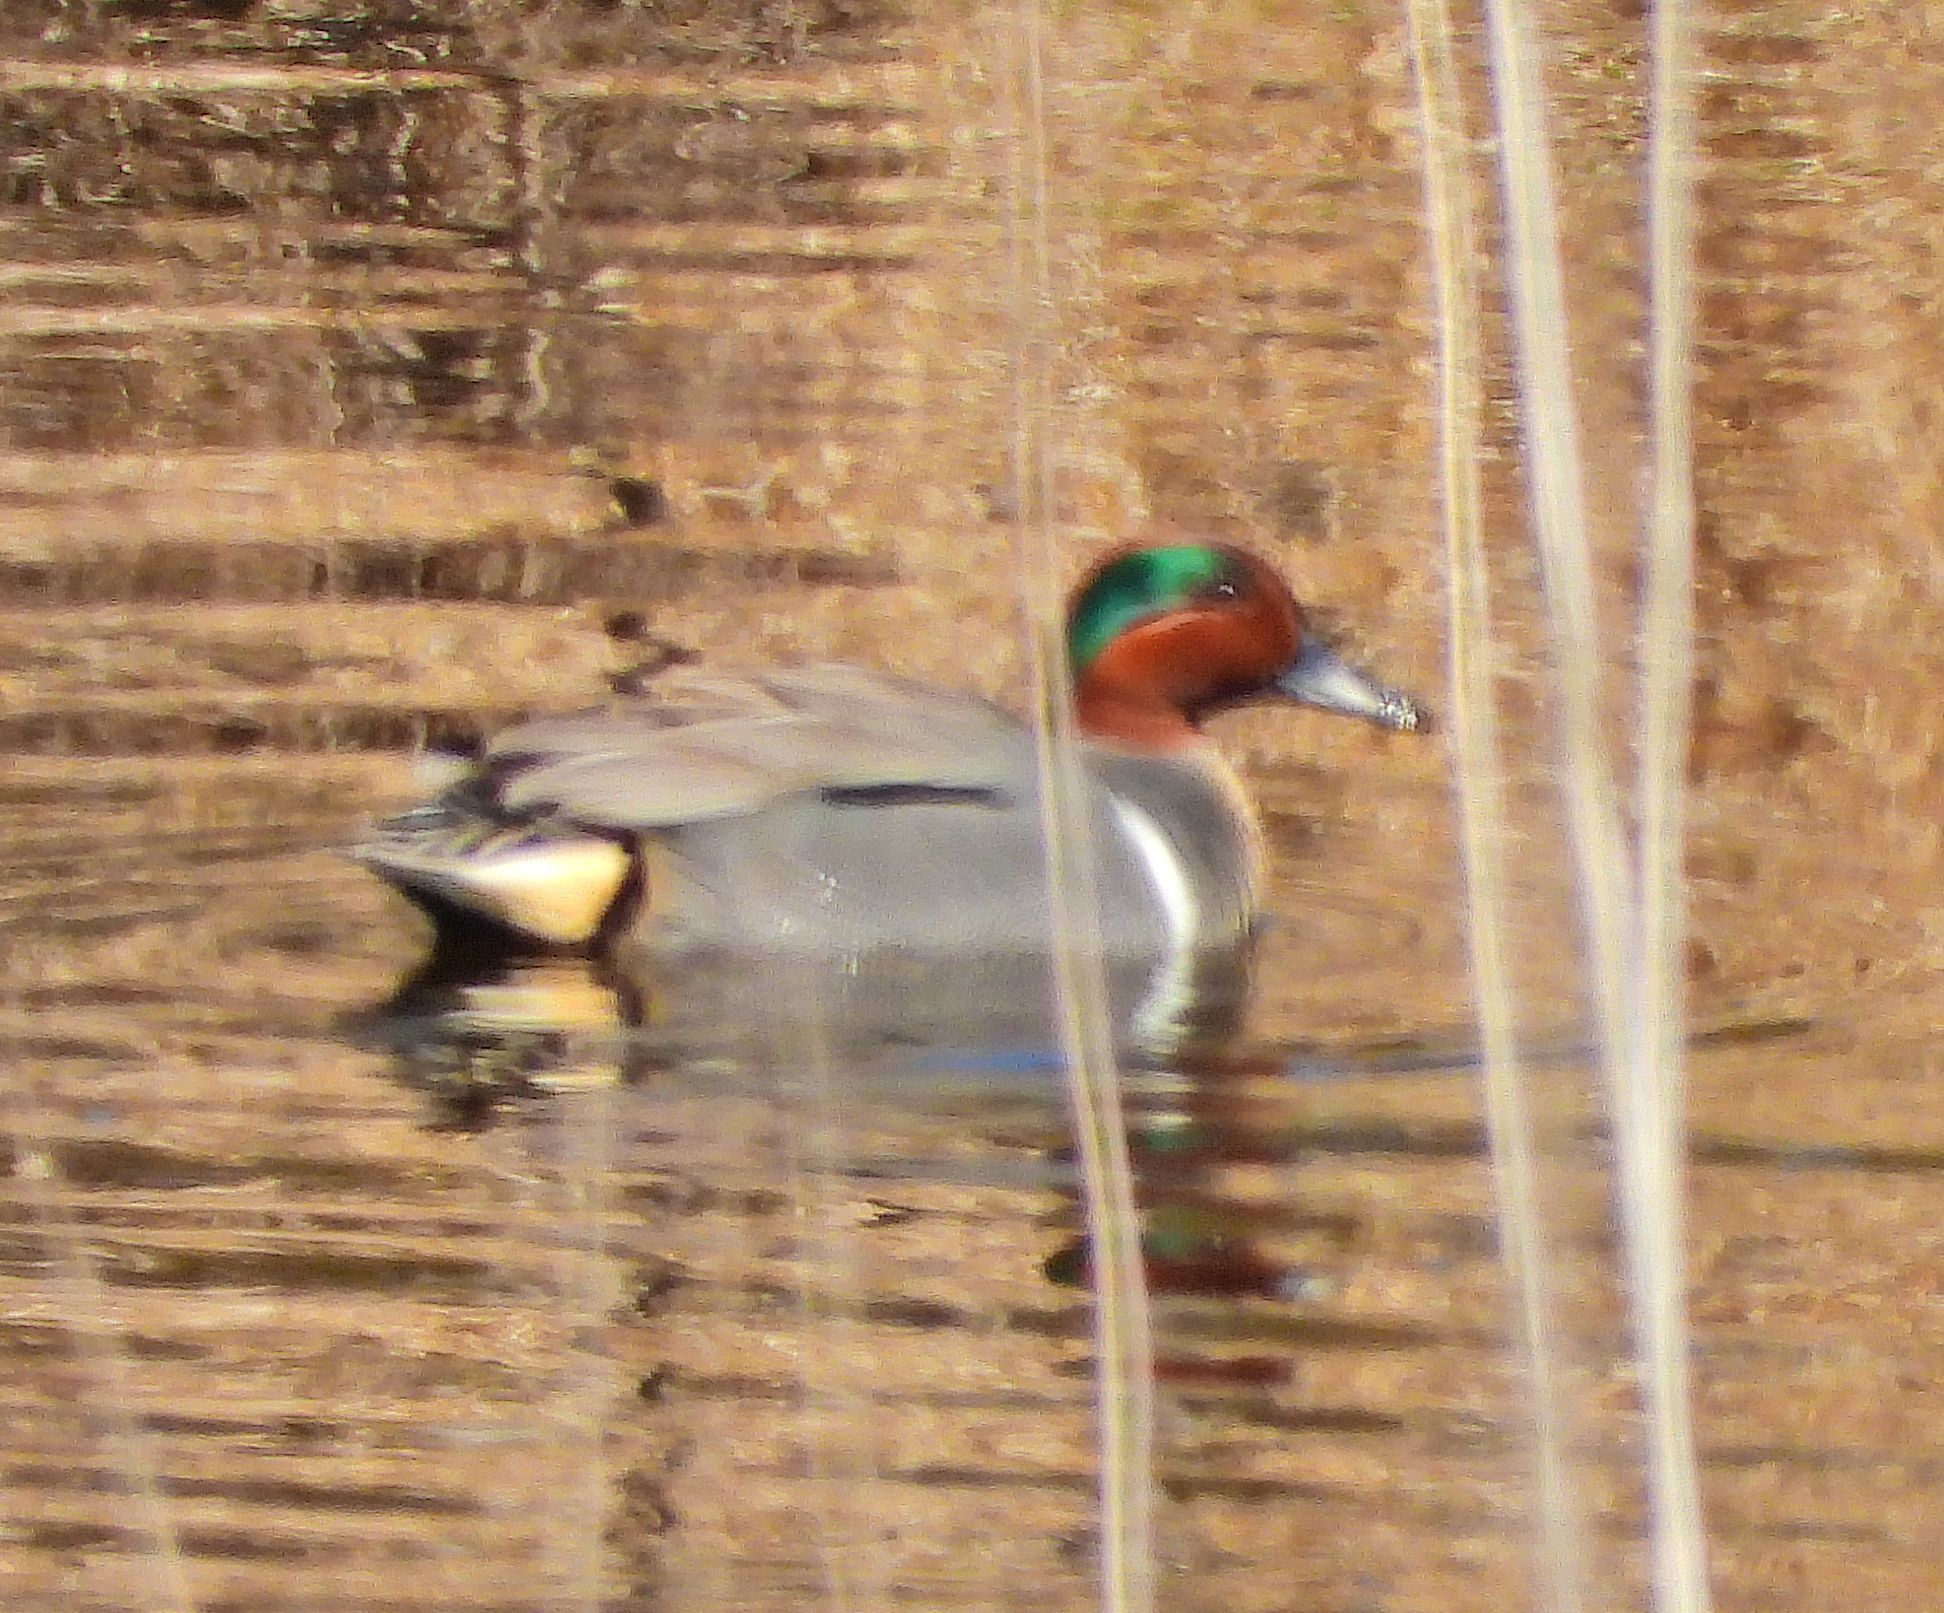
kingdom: Animalia
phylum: Chordata
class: Aves
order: Anseriformes
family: Anatidae
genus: Anas
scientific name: Anas crecca
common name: Eurasian teal
